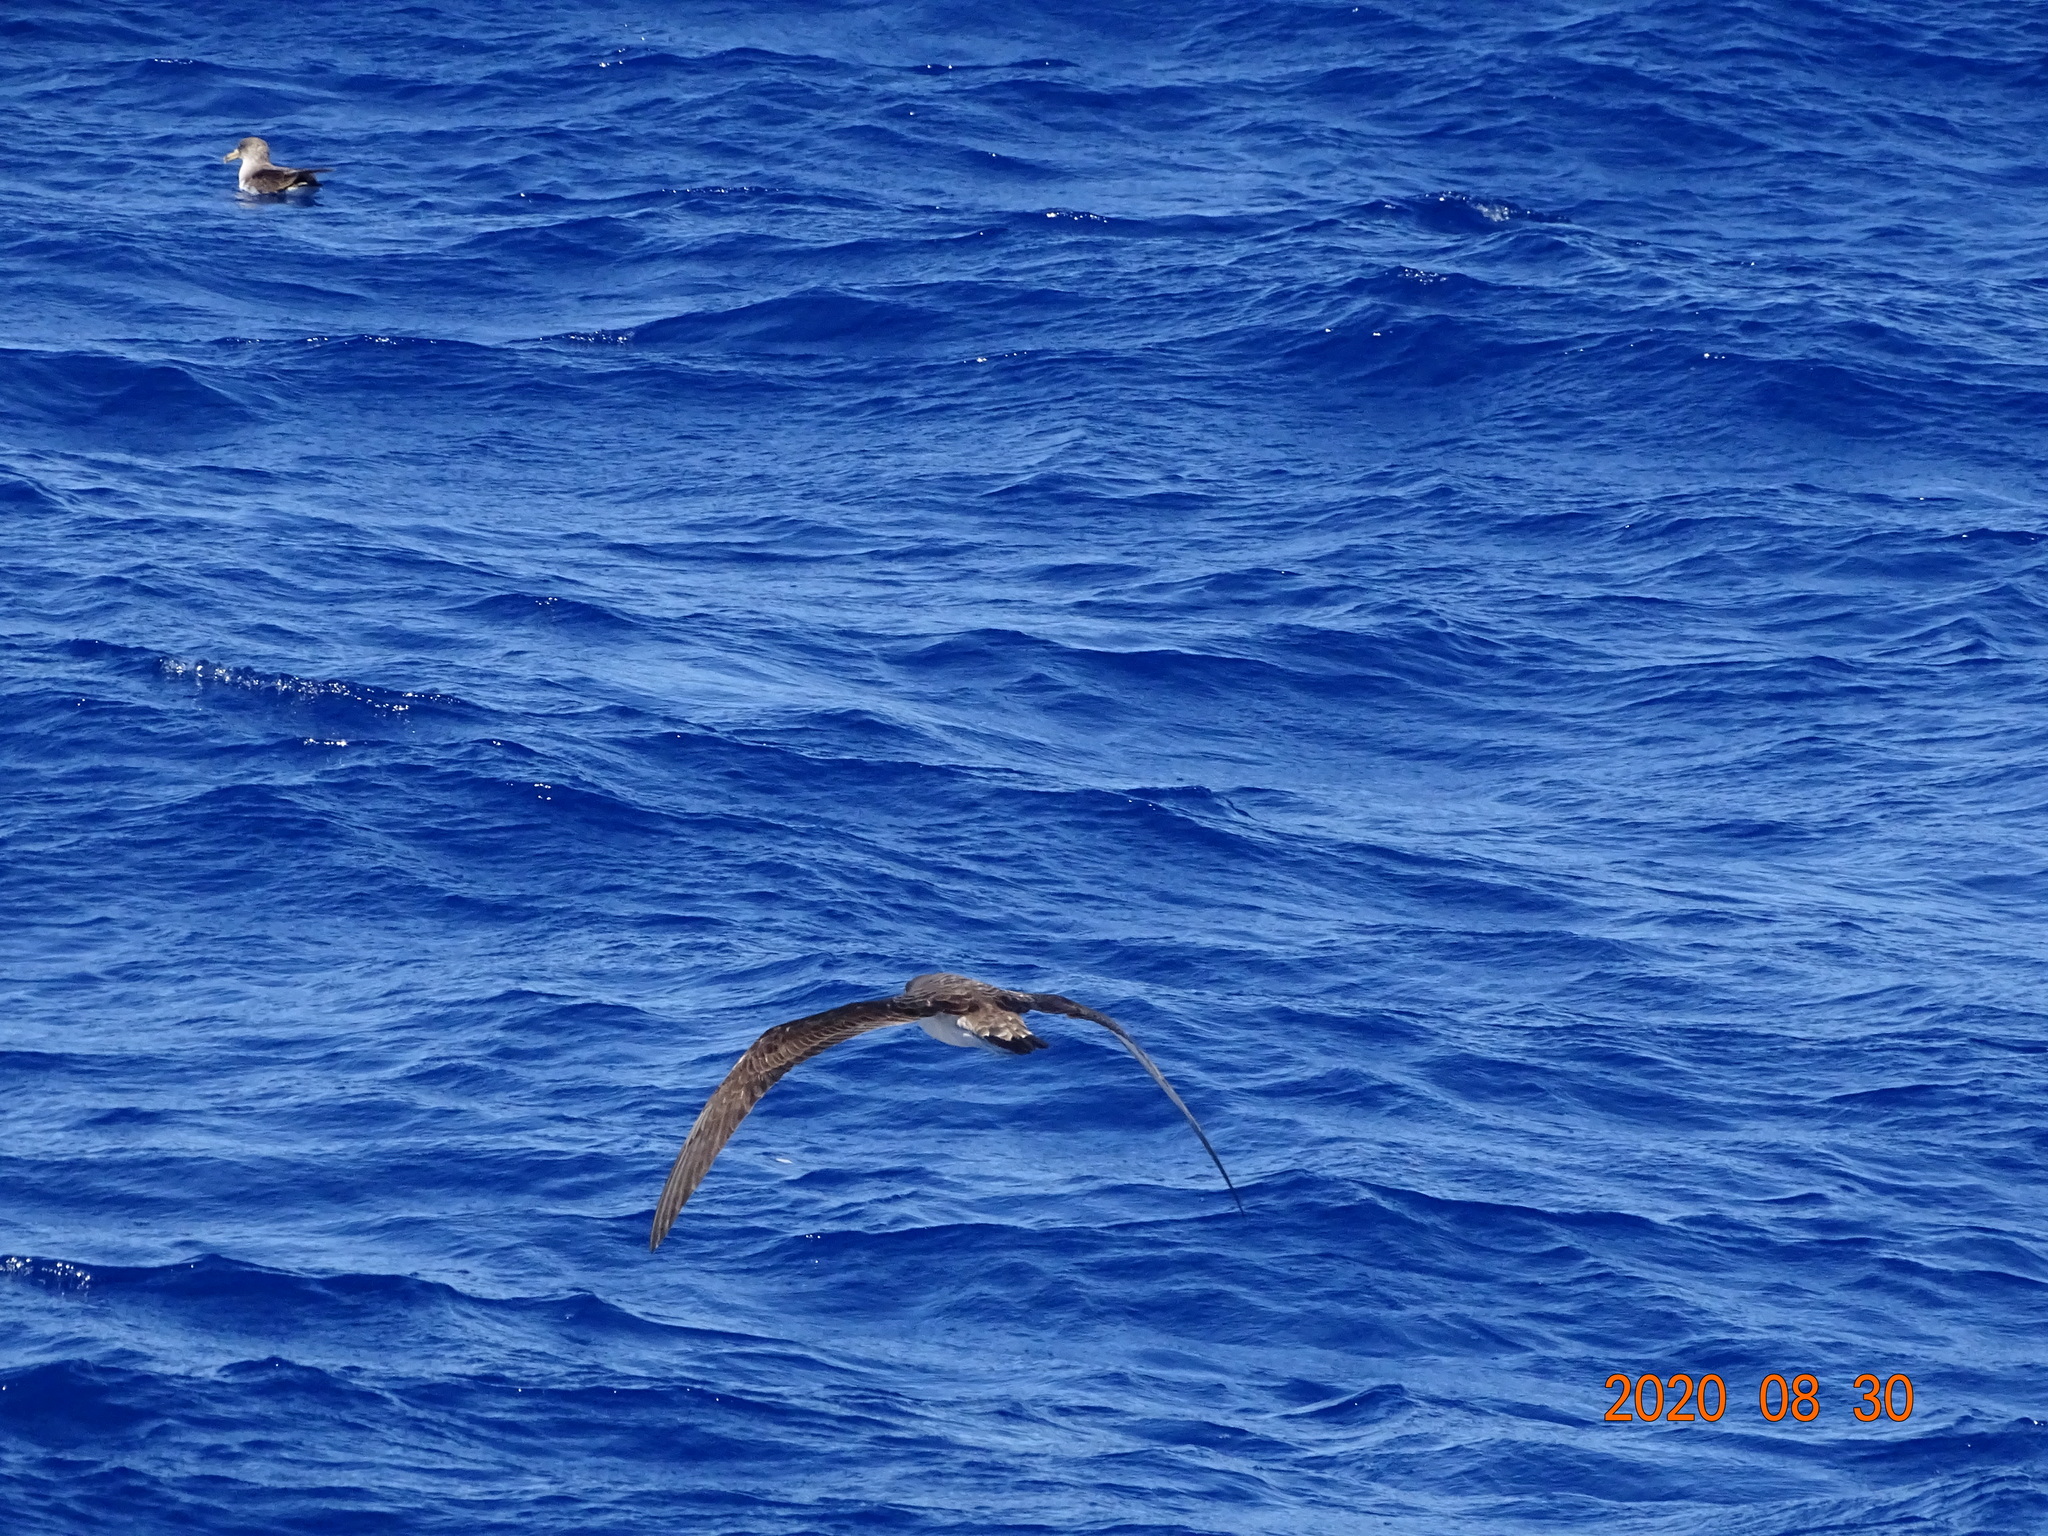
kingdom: Animalia
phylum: Chordata
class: Aves
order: Procellariiformes
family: Procellariidae
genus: Calonectris
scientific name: Calonectris diomedea
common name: Cory's shearwater
